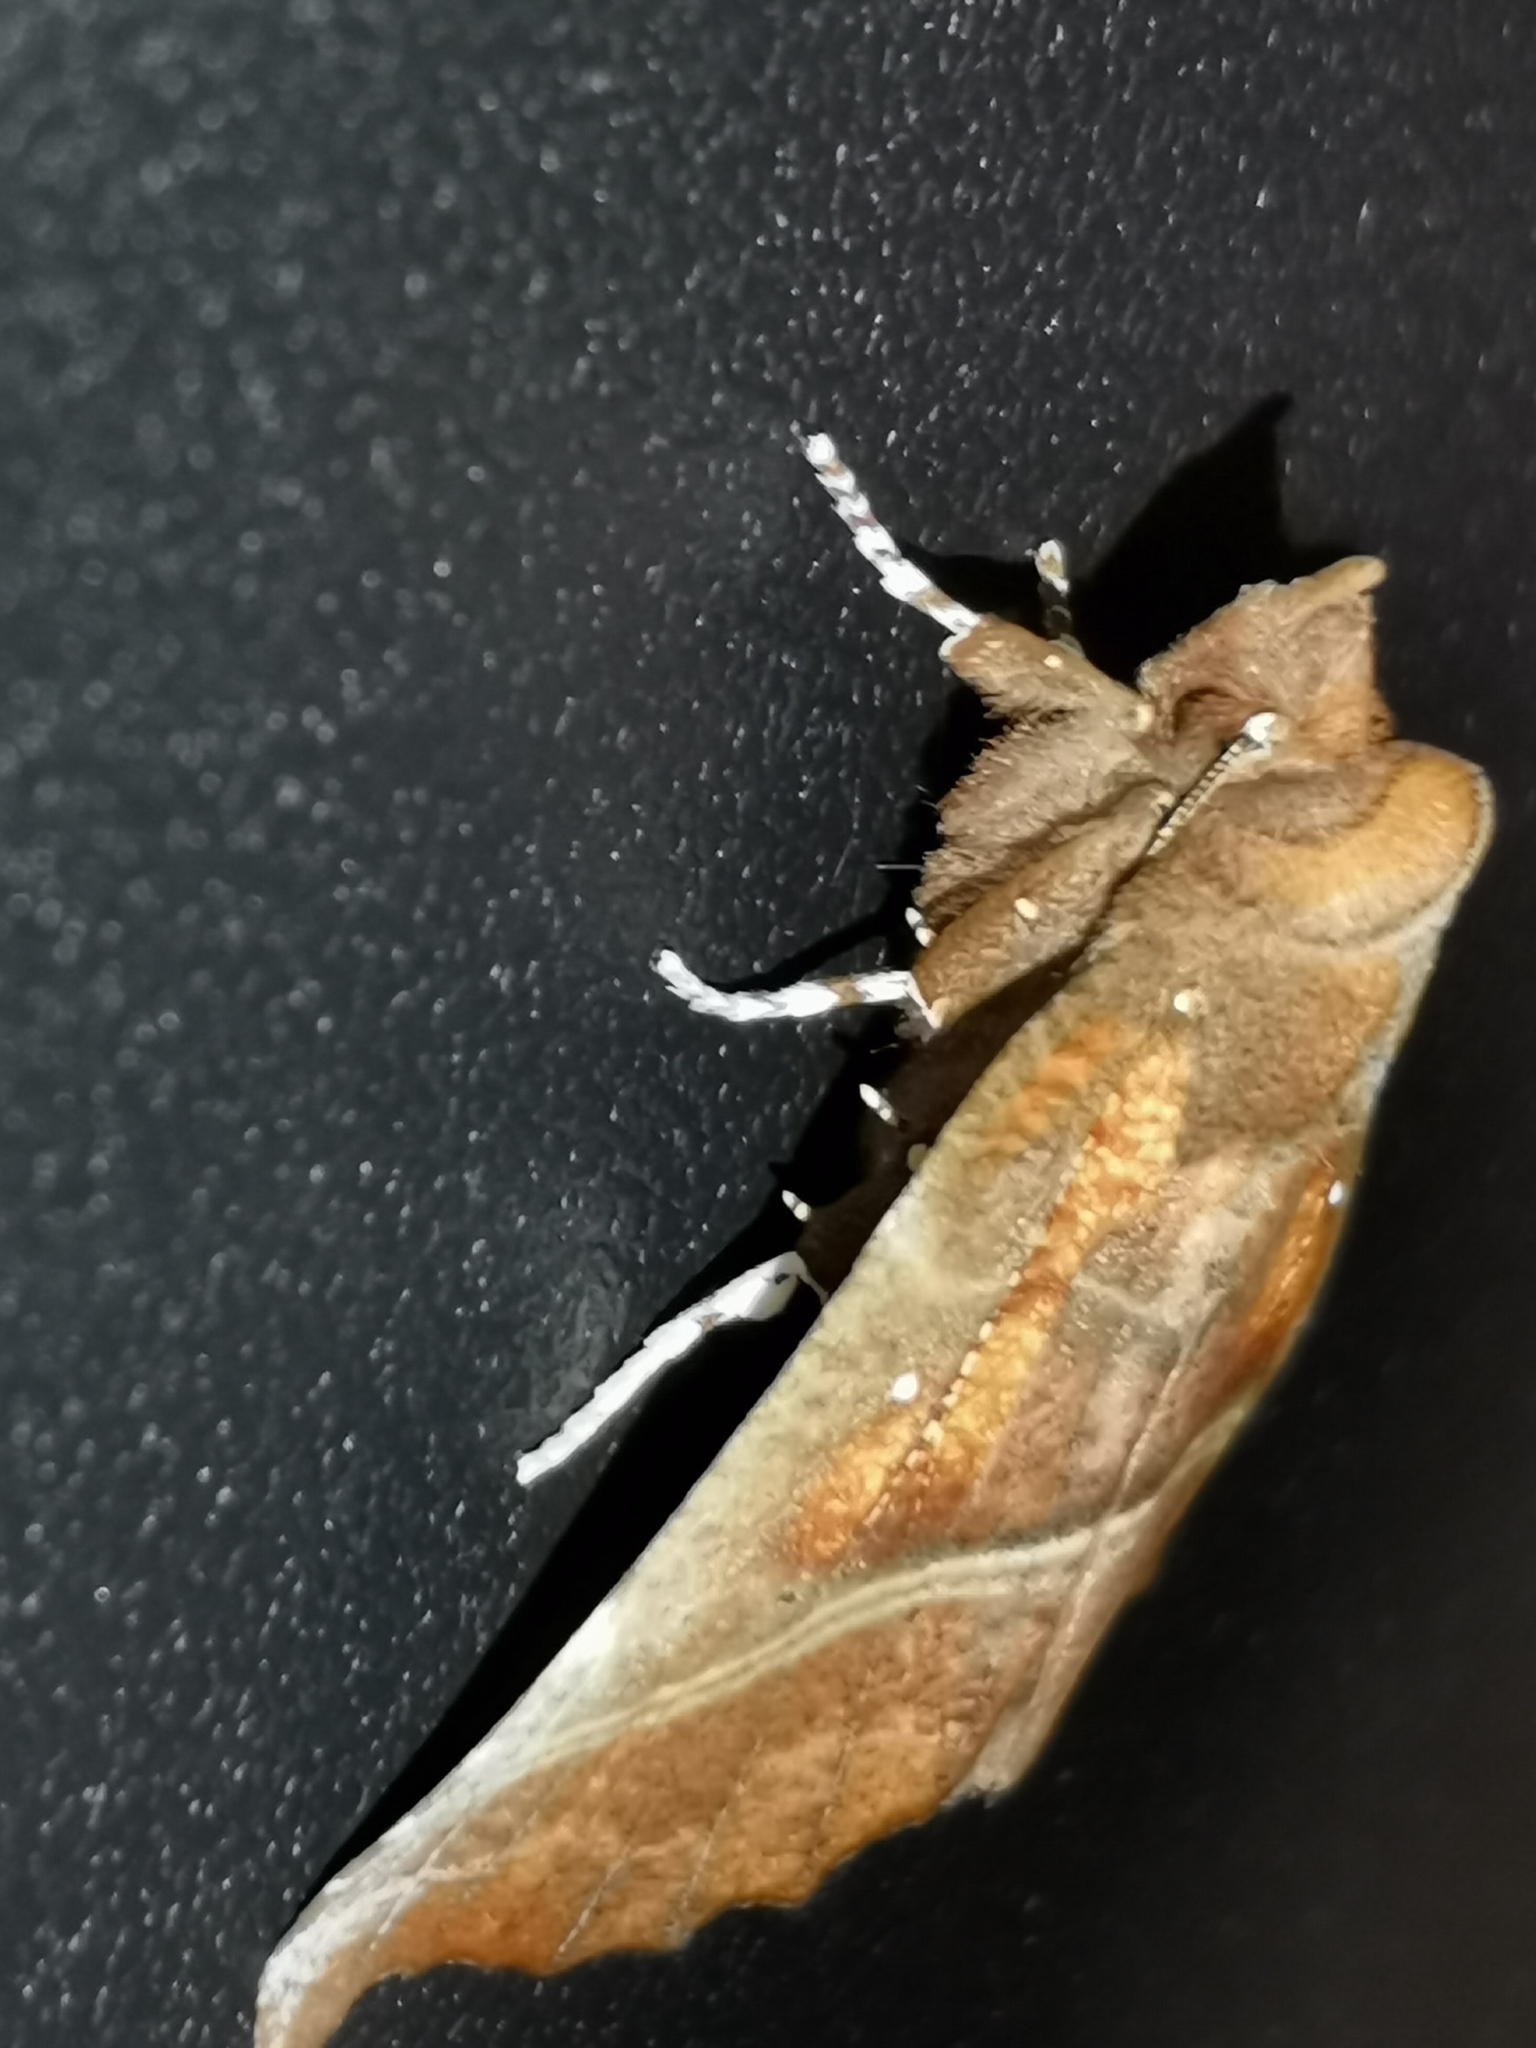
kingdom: Animalia
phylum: Arthropoda
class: Insecta
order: Lepidoptera
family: Erebidae
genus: Scoliopteryx
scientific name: Scoliopteryx libatrix
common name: Herald
